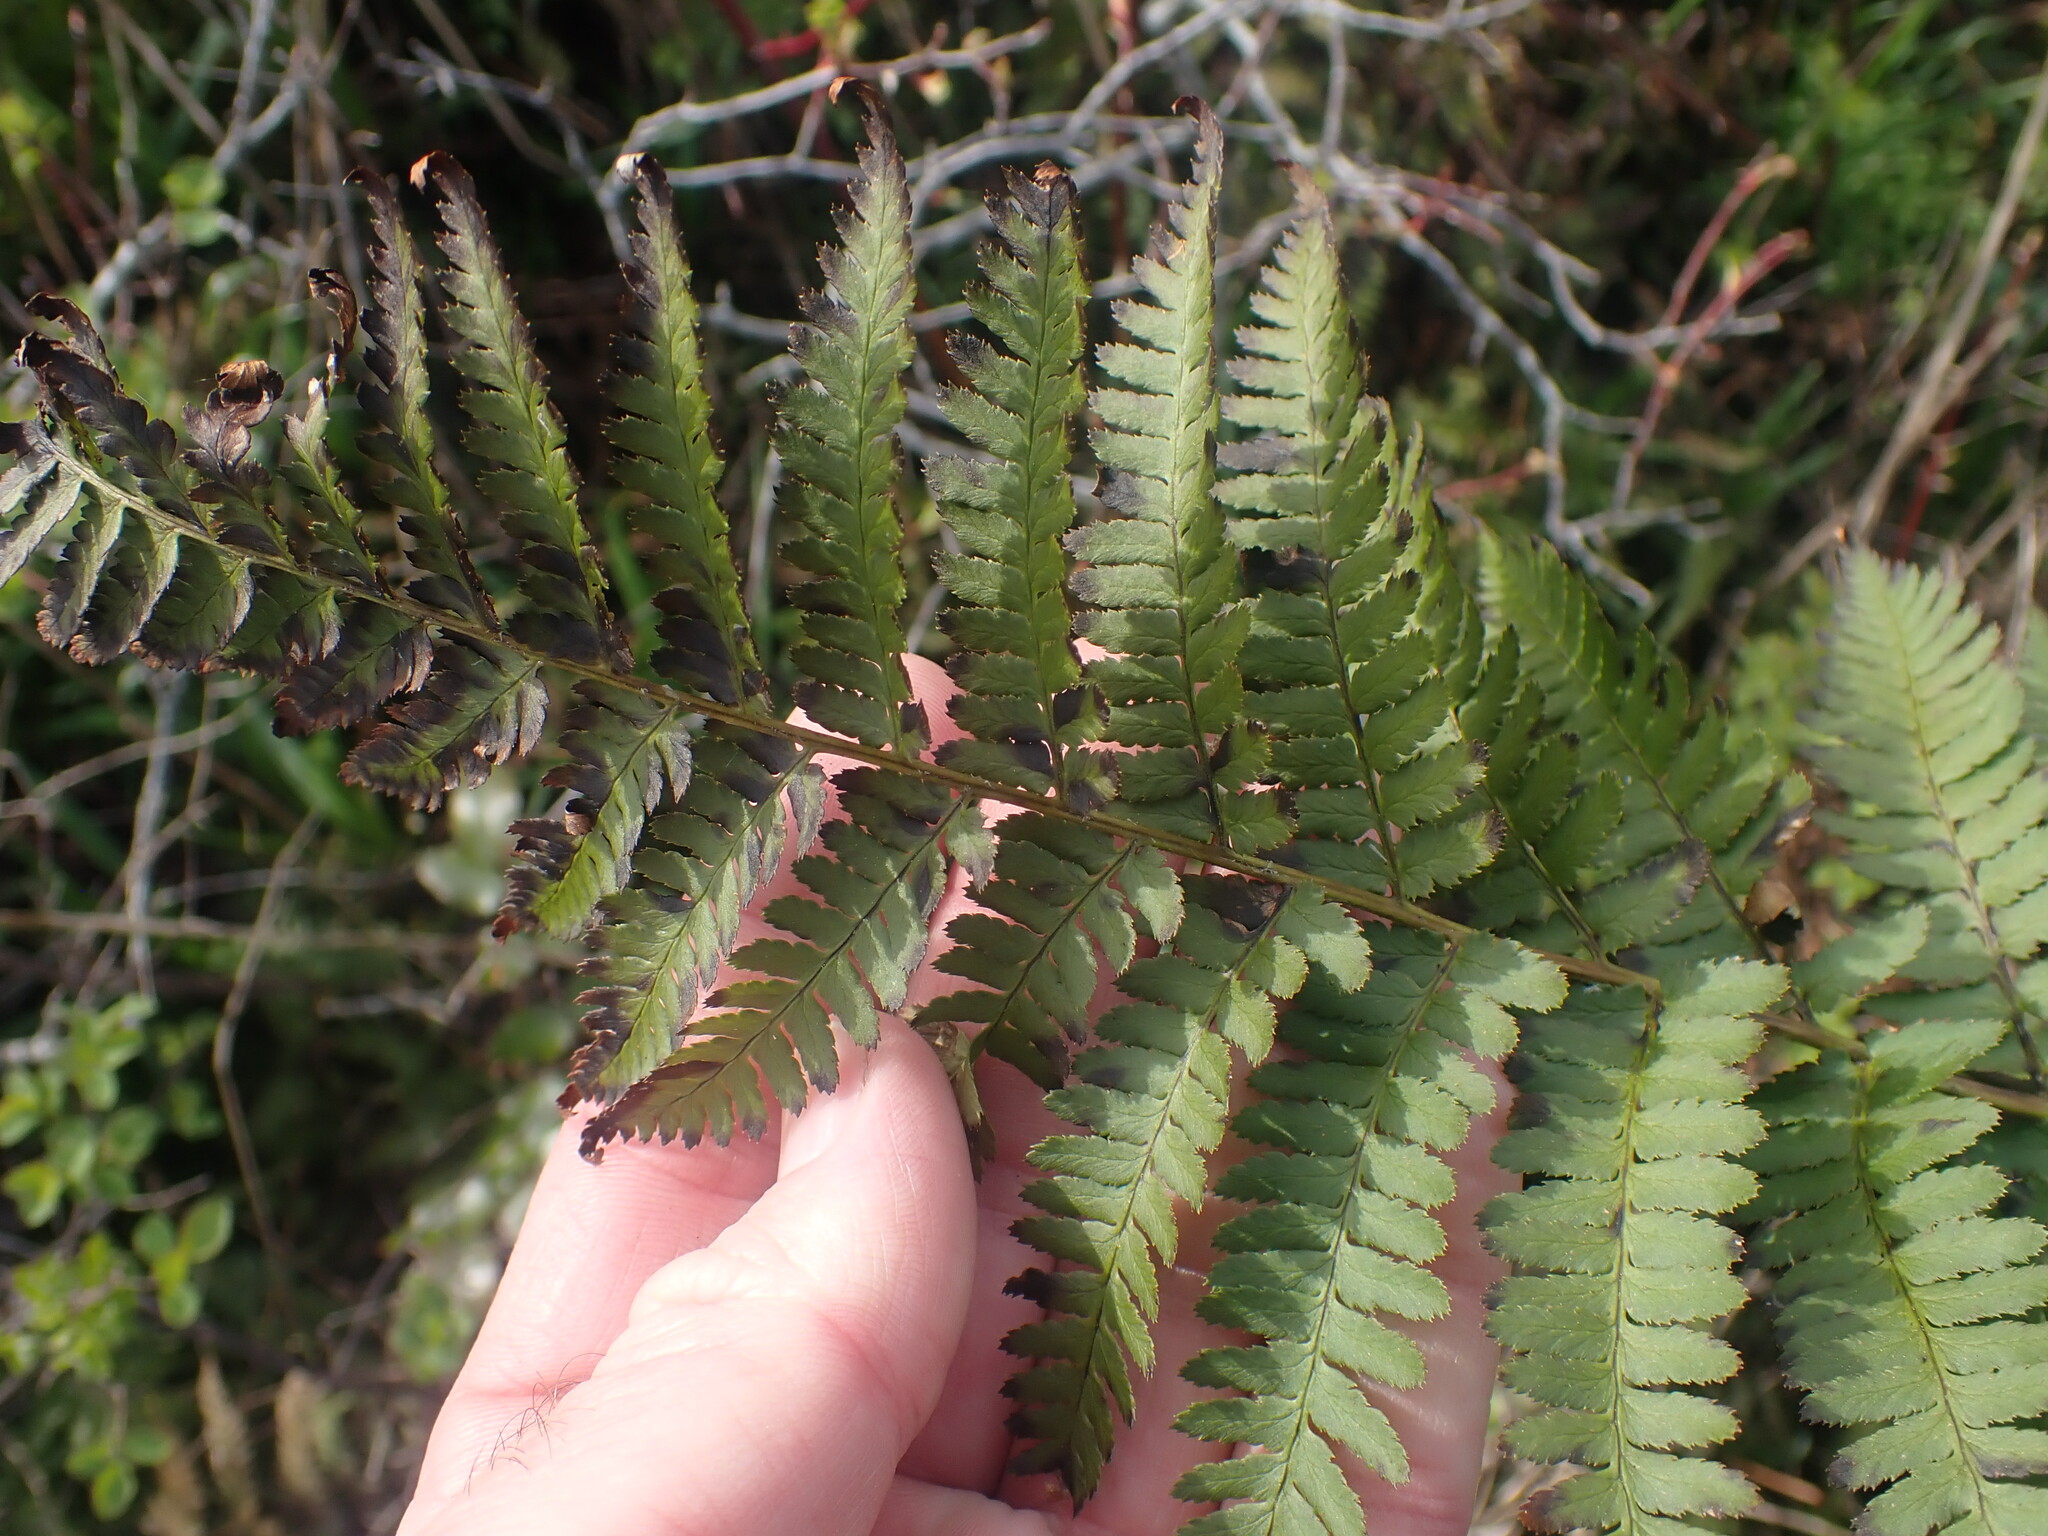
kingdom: Plantae
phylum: Tracheophyta
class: Polypodiopsida
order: Polypodiales
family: Dryopteridaceae
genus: Dryopteris
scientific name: Dryopteris arguta
